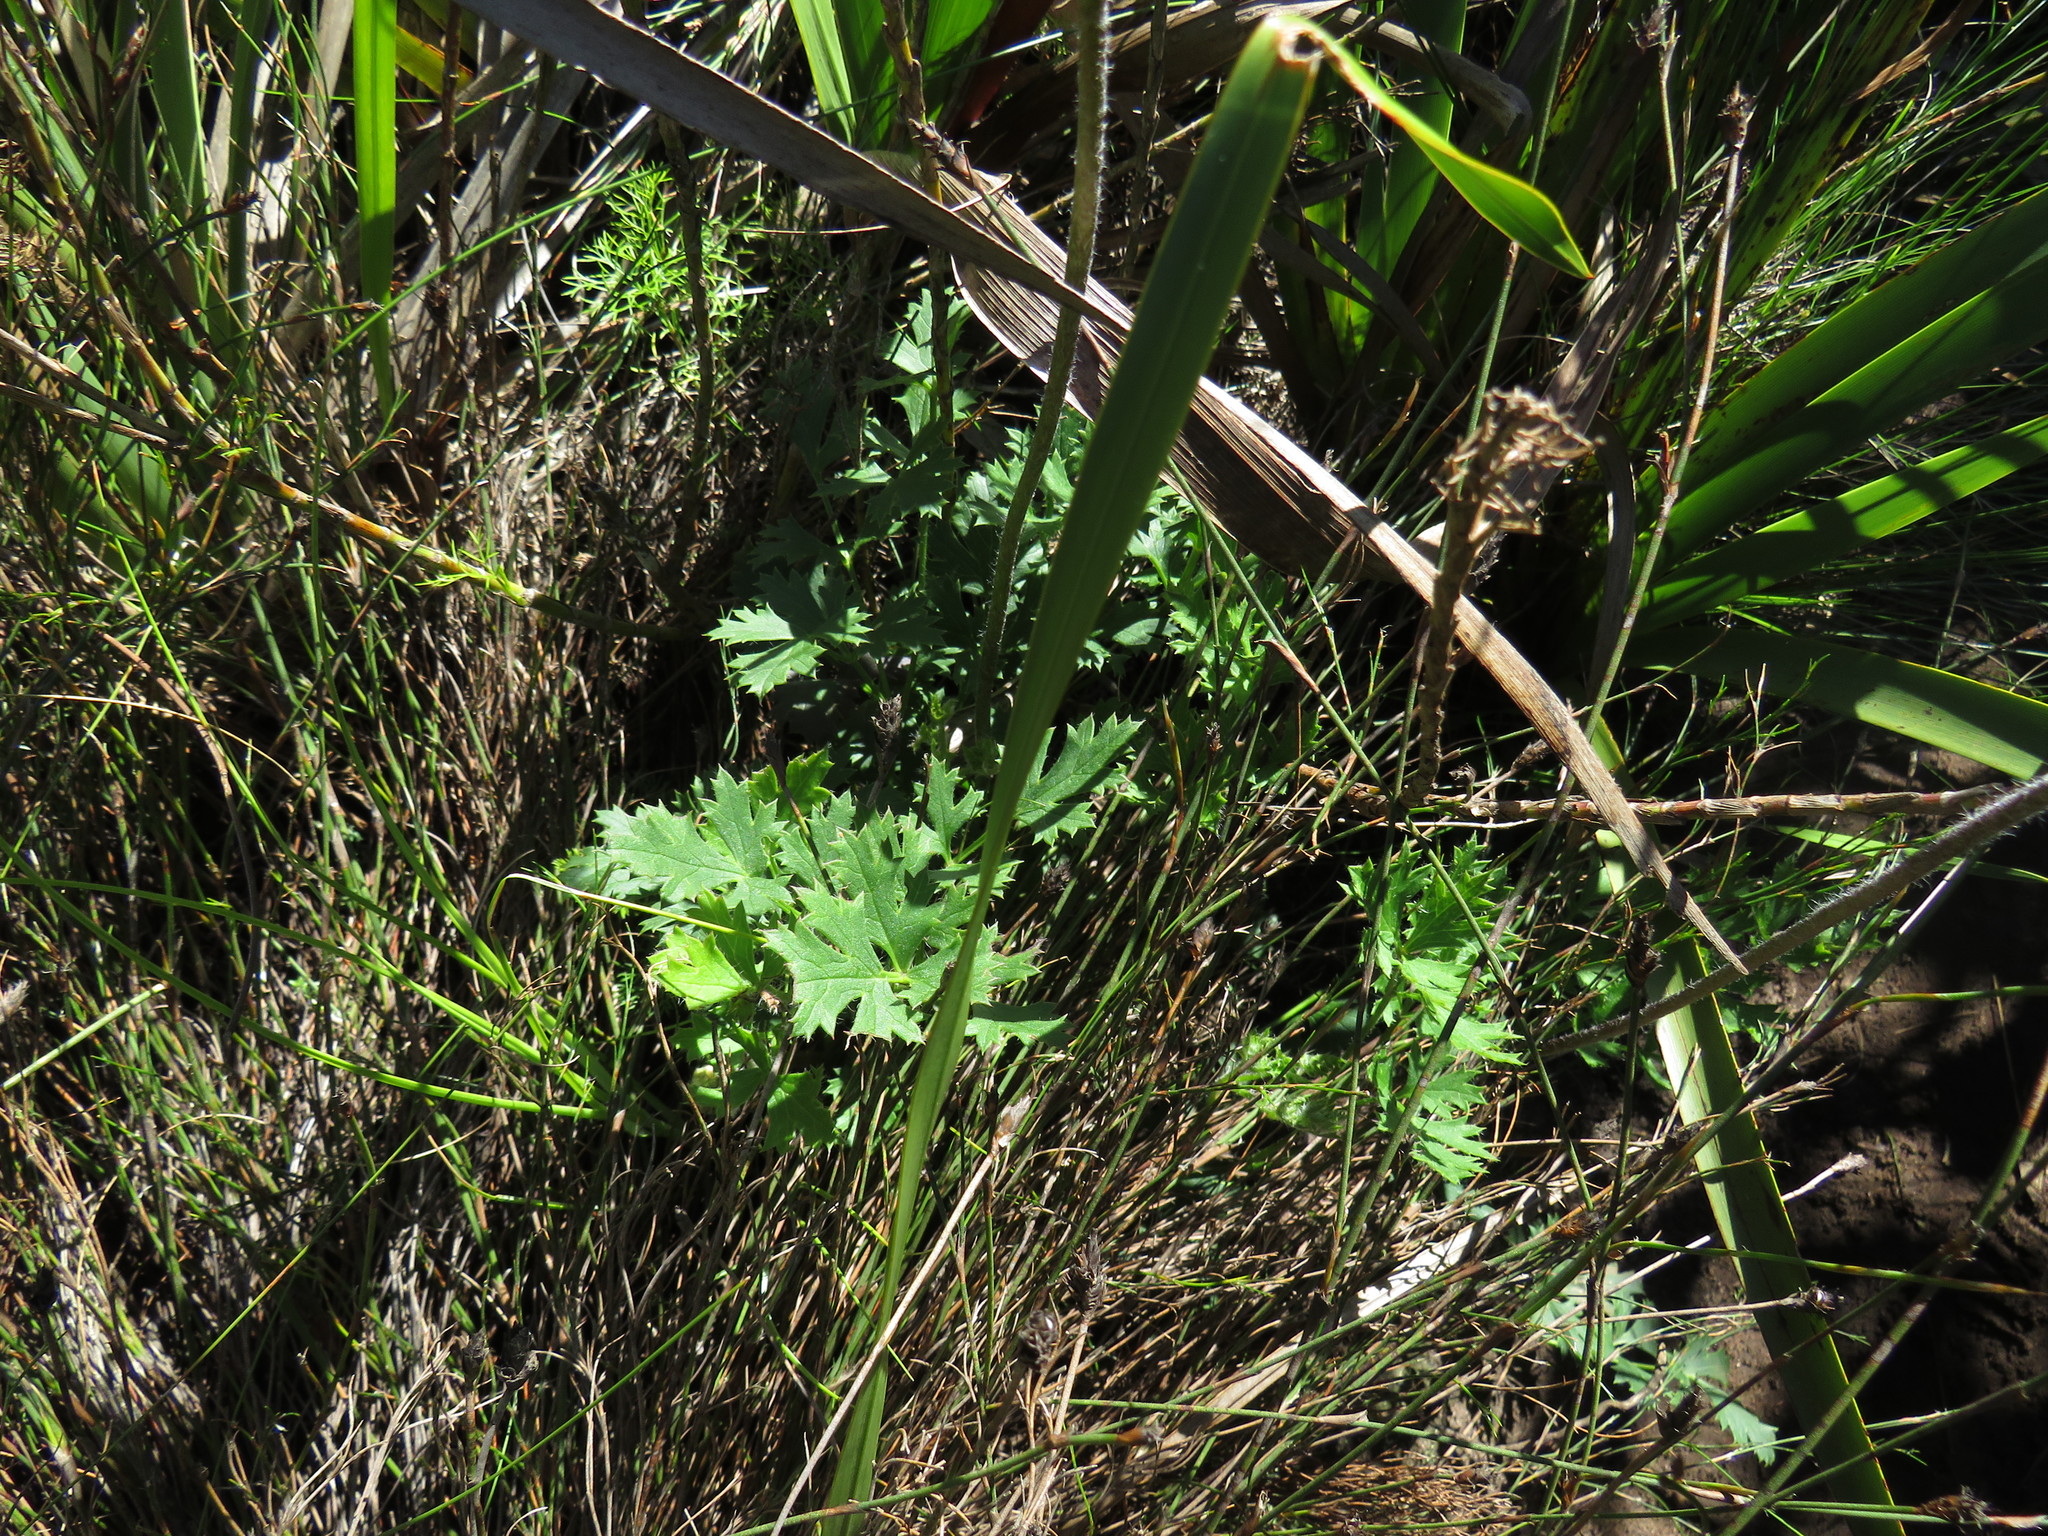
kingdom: Plantae
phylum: Tracheophyta
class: Magnoliopsida
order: Ranunculales
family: Ranunculaceae
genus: Knowltonia
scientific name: Knowltonia tenuifolia
